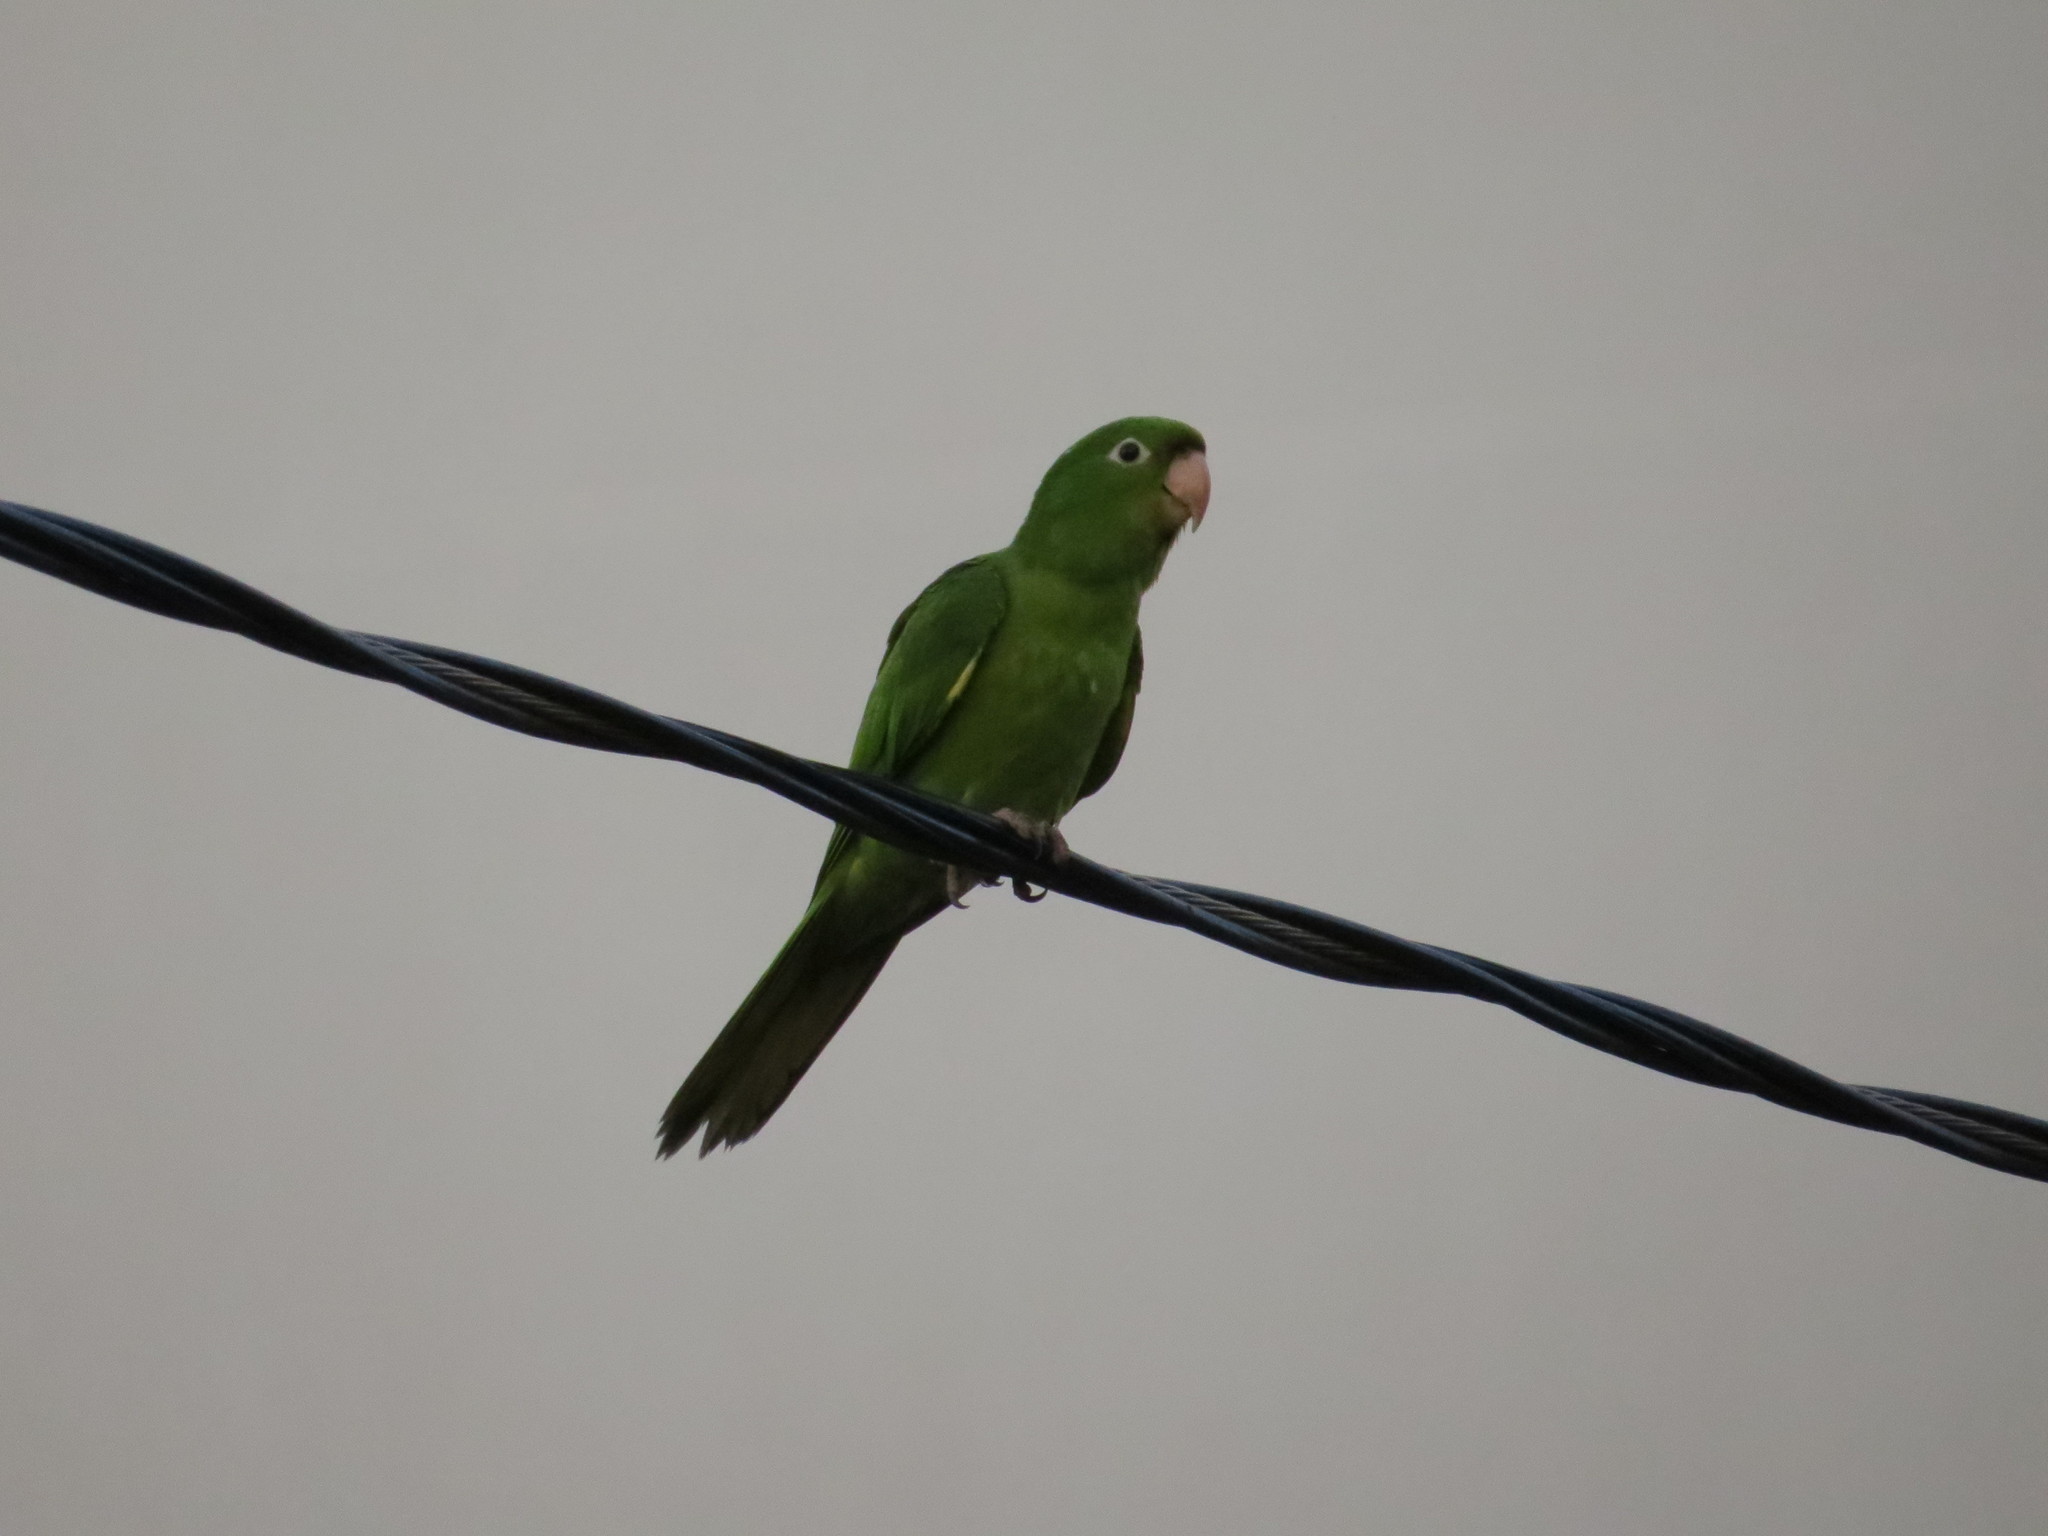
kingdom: Animalia
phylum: Chordata
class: Aves
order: Psittaciformes
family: Psittacidae
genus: Aratinga
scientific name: Aratinga leucophthalma
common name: White-eyed parakeet
